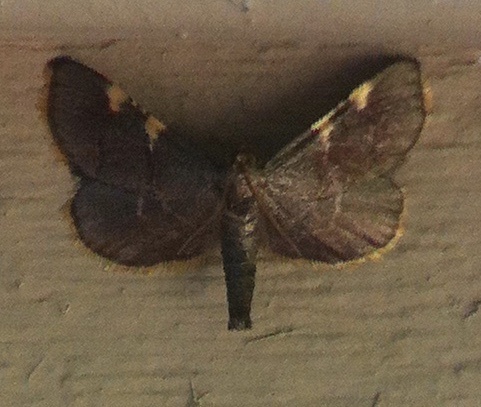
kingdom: Animalia
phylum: Arthropoda
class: Insecta
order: Lepidoptera
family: Pyralidae
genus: Hypsopygia
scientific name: Hypsopygia olinalis
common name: Yellow-fringed dolichomia moth
